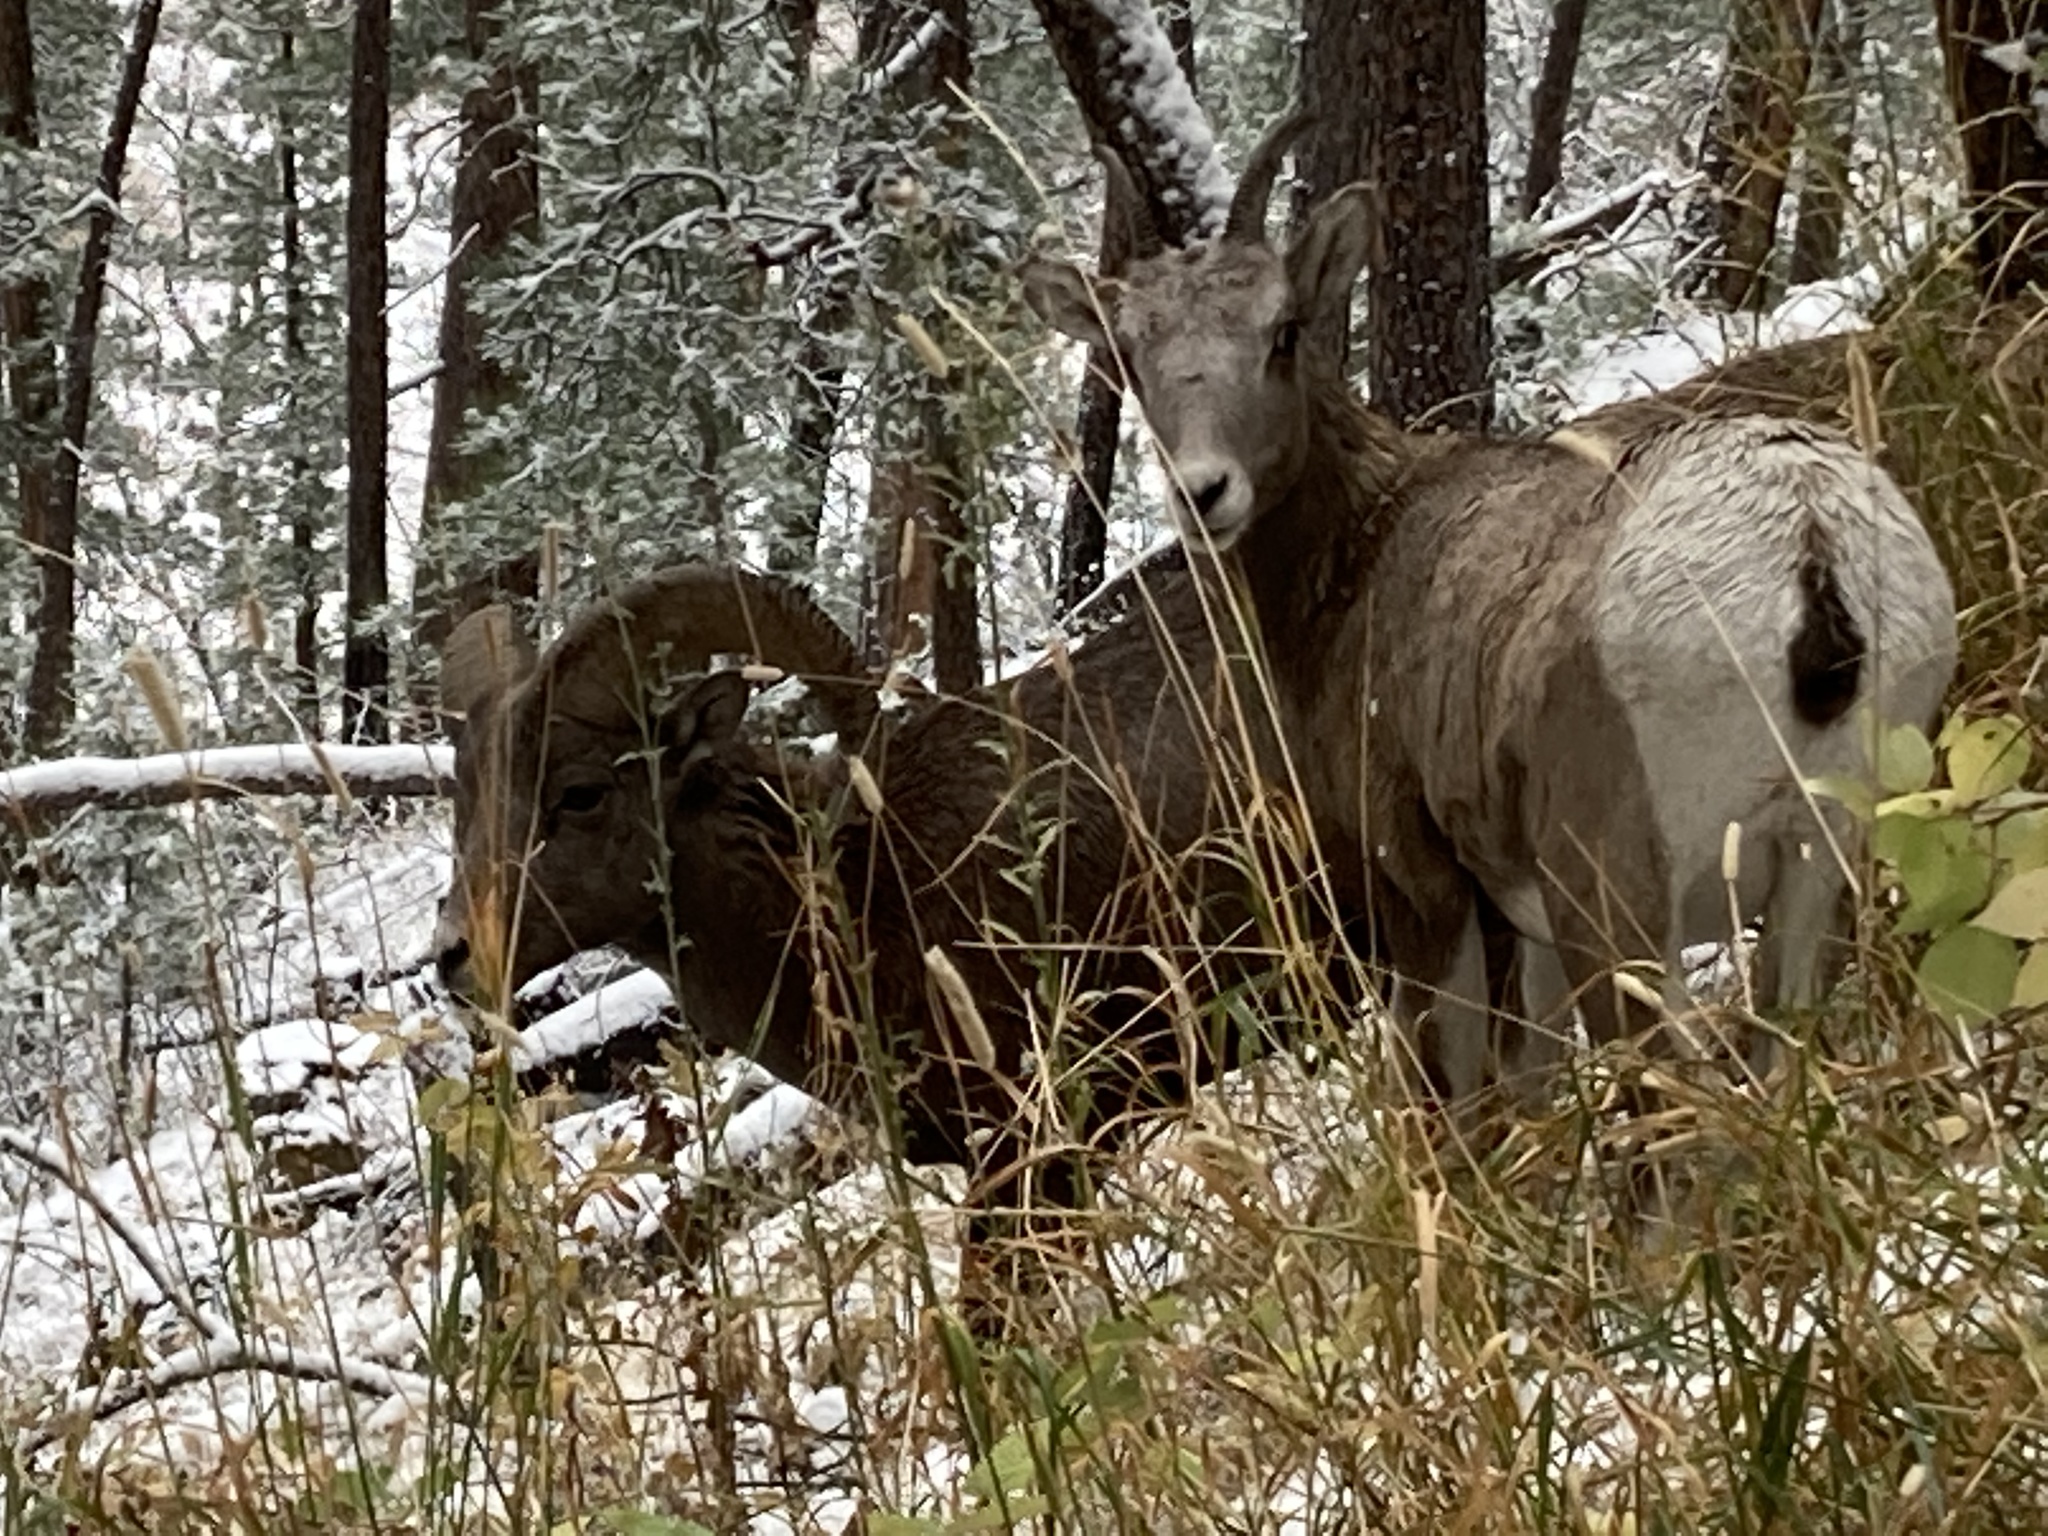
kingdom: Animalia
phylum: Chordata
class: Mammalia
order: Artiodactyla
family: Bovidae
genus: Ovis
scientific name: Ovis canadensis
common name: Bighorn sheep
